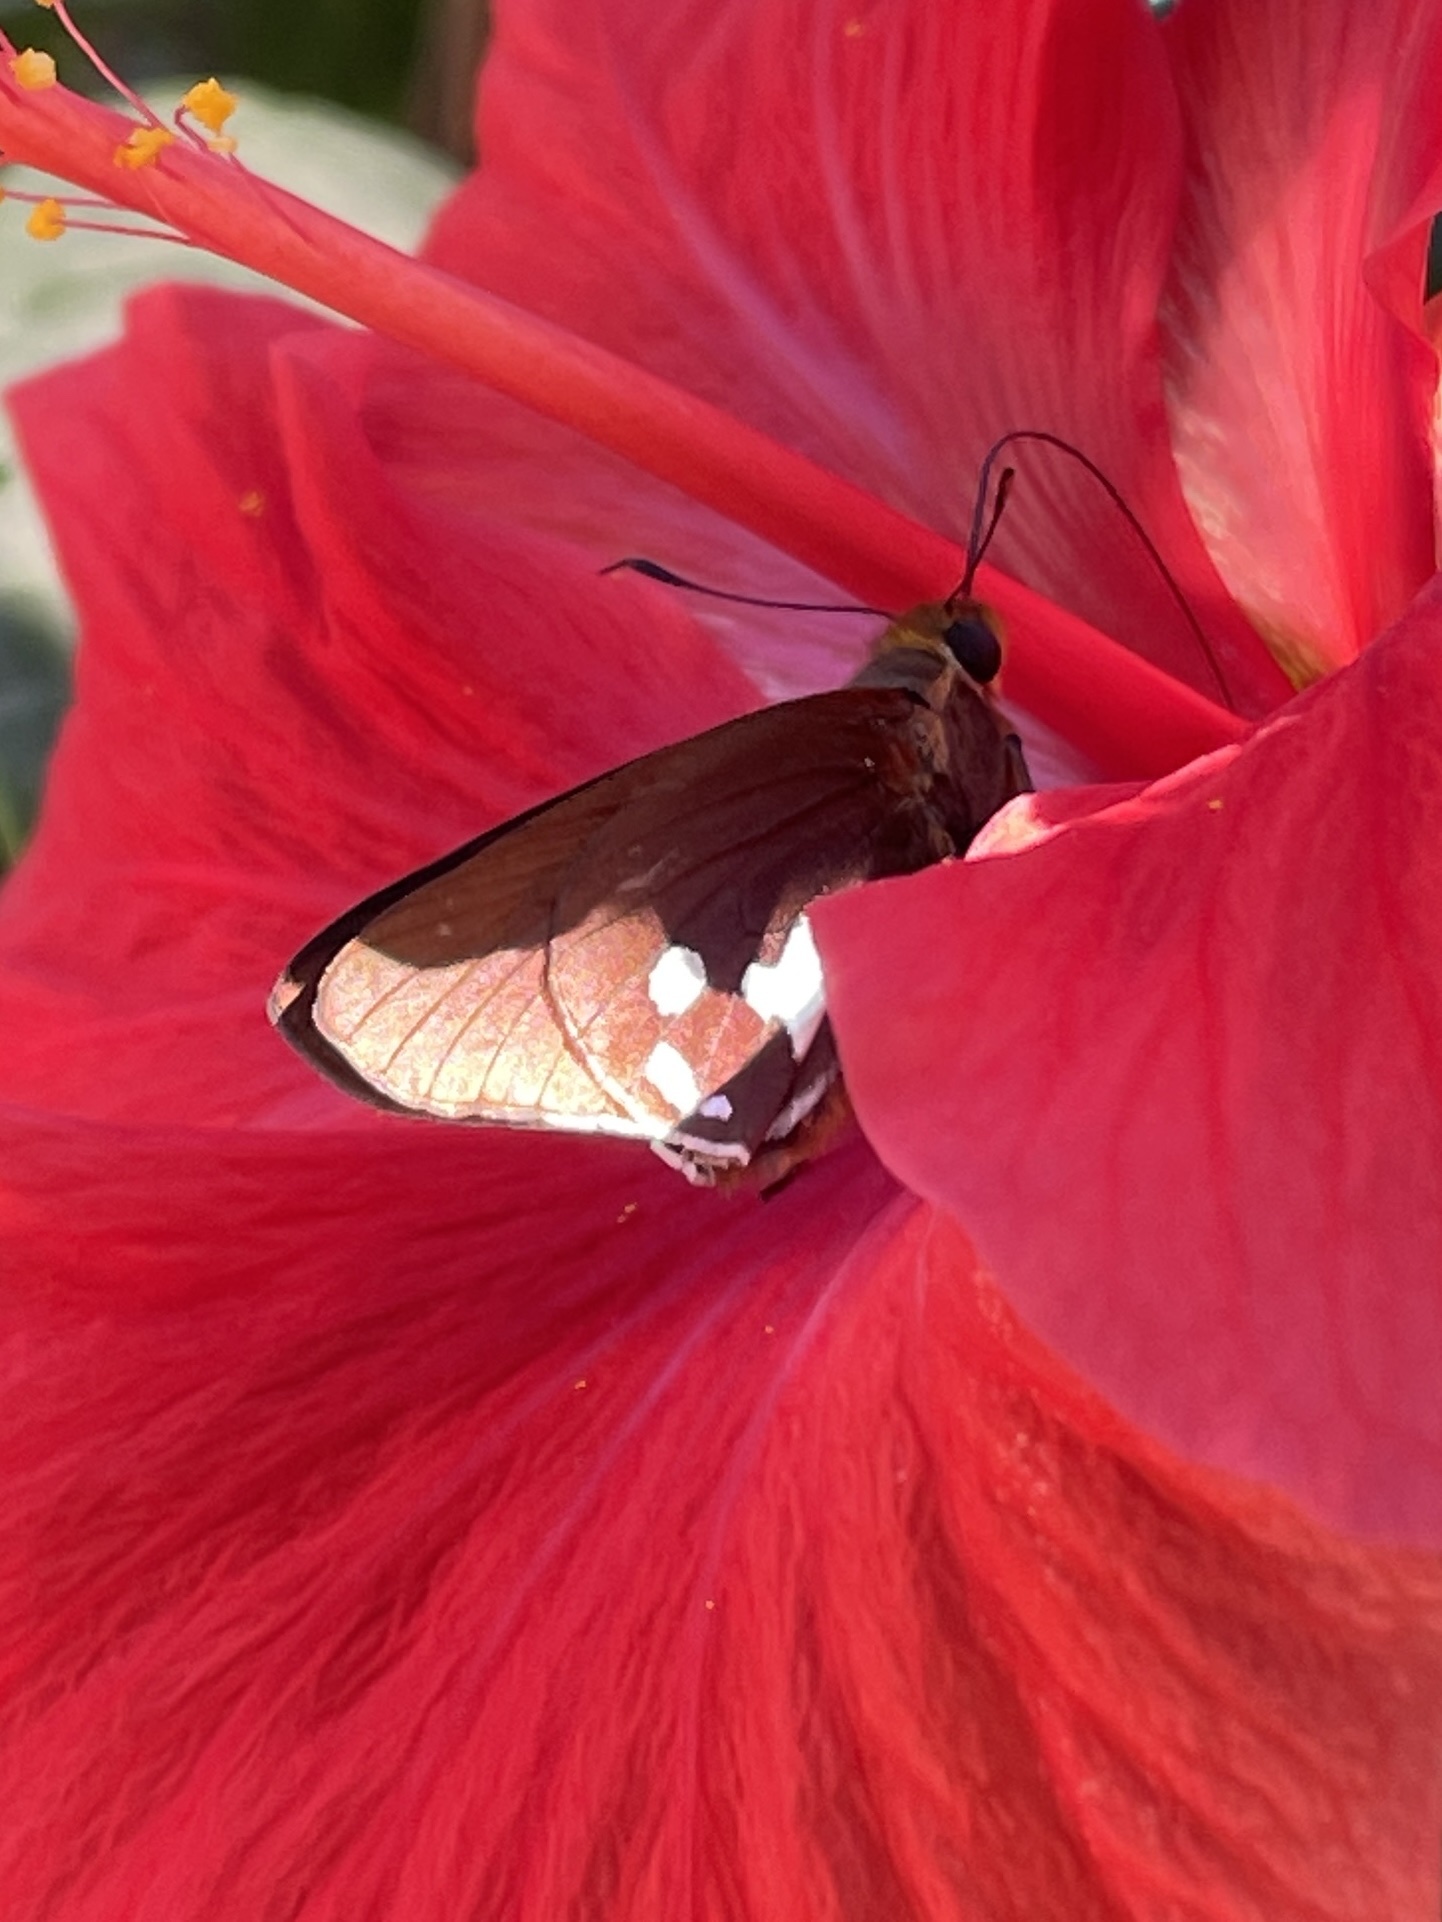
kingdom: Animalia
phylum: Arthropoda
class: Insecta
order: Lepidoptera
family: Hesperiidae
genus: Aides
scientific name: Aides dysoni
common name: Dyson's silverpatch
